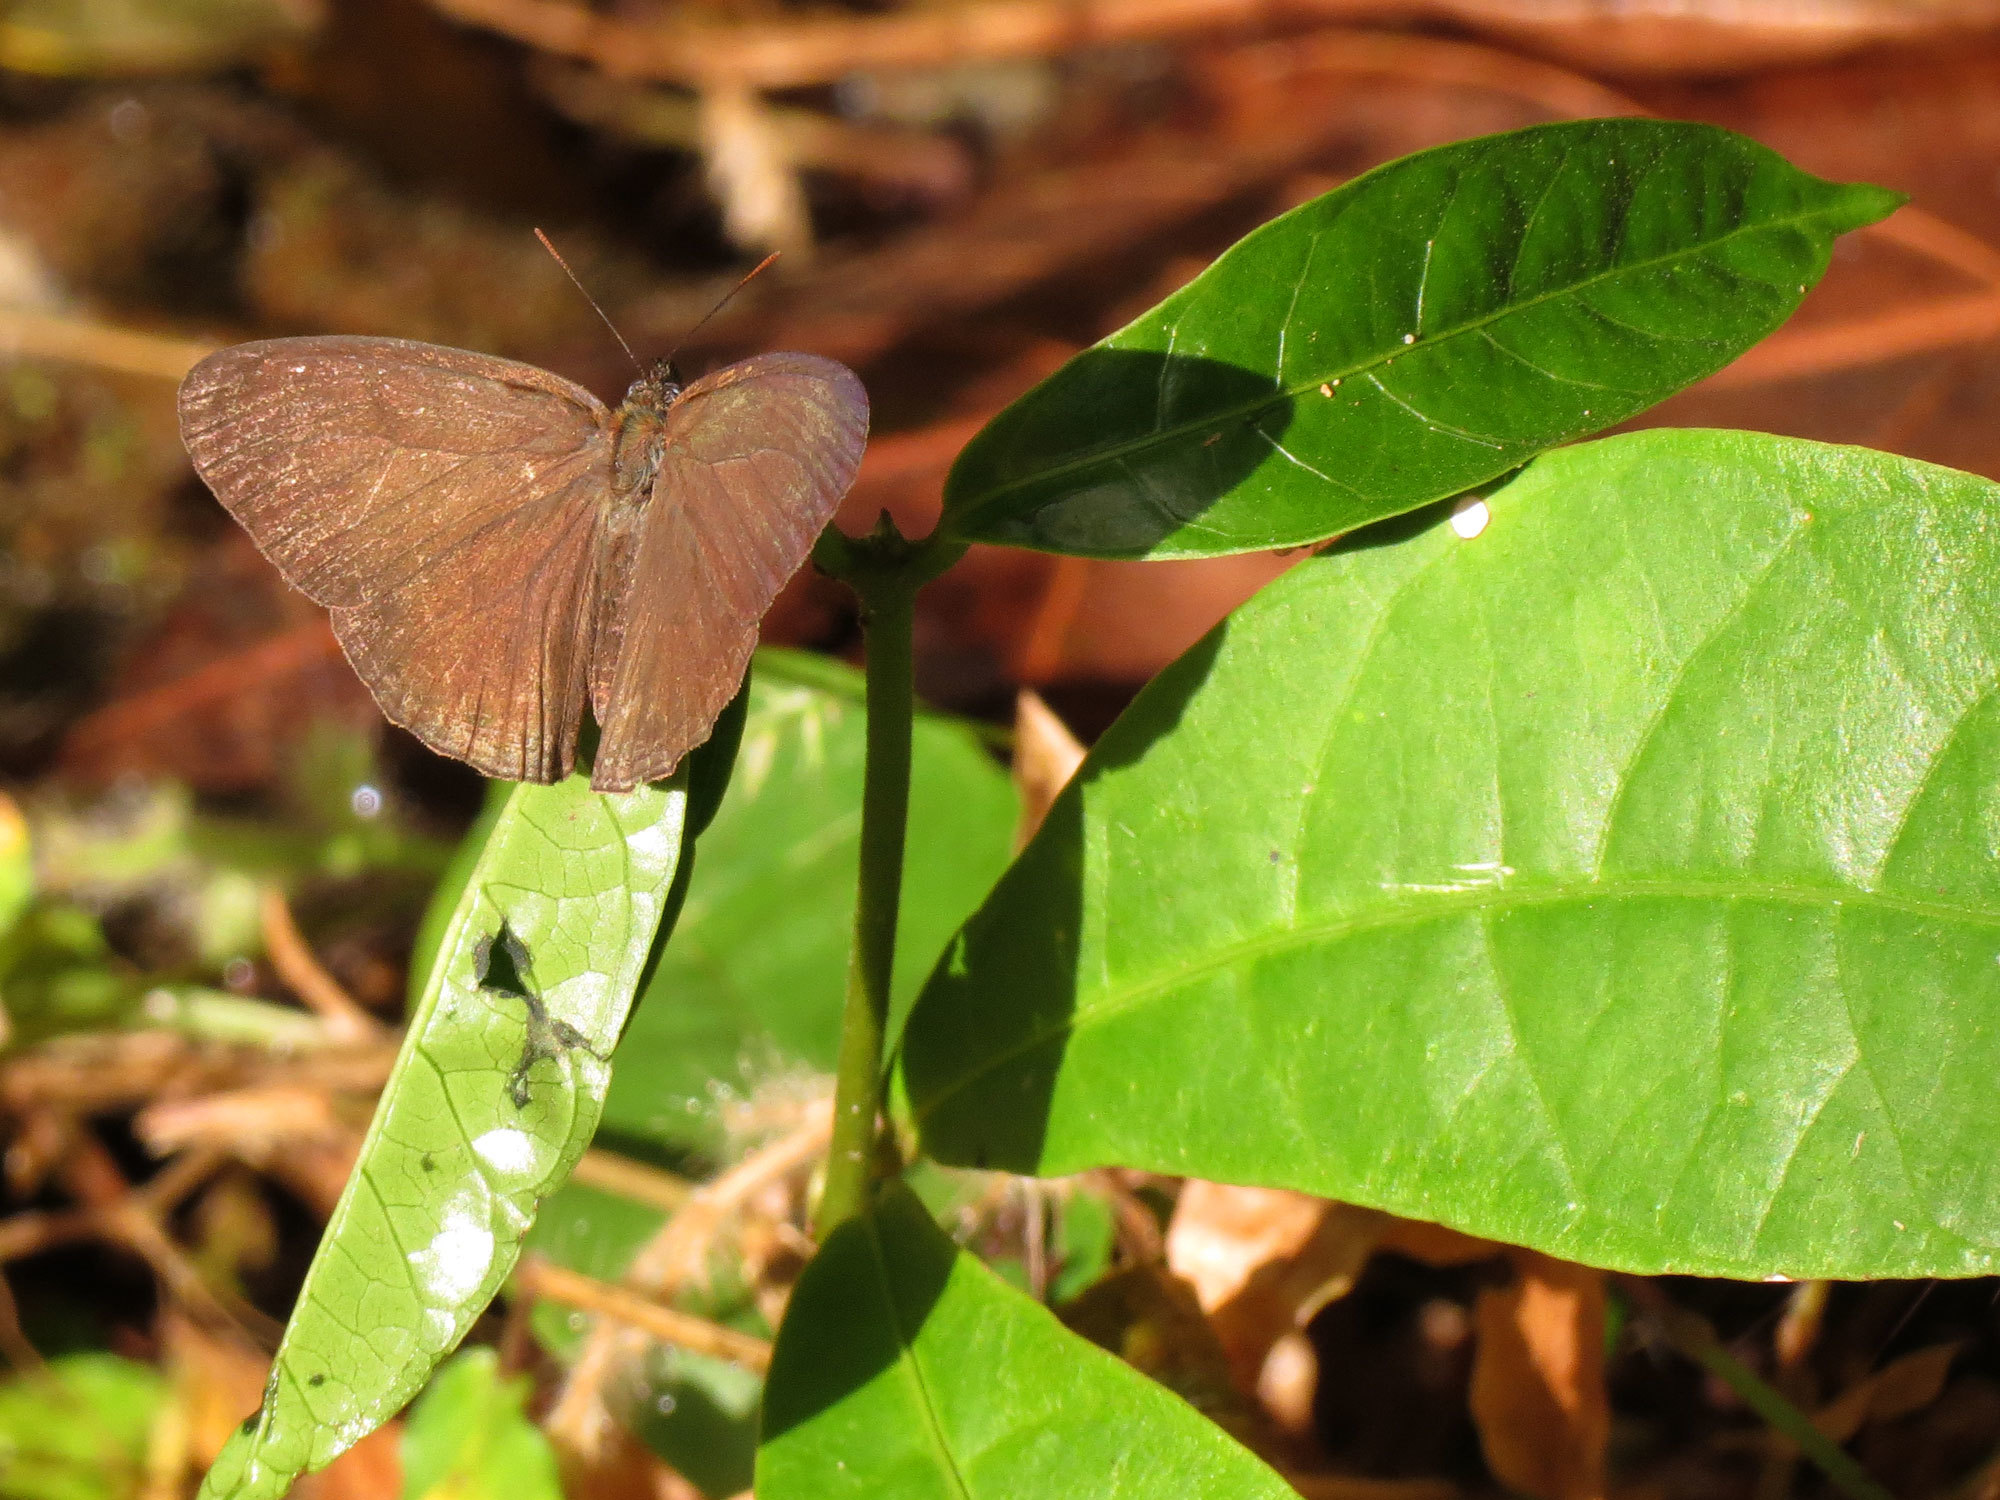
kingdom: Animalia
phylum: Arthropoda
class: Insecta
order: Lepidoptera
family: Nymphalidae
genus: Euptychiina
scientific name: Euptychiina
